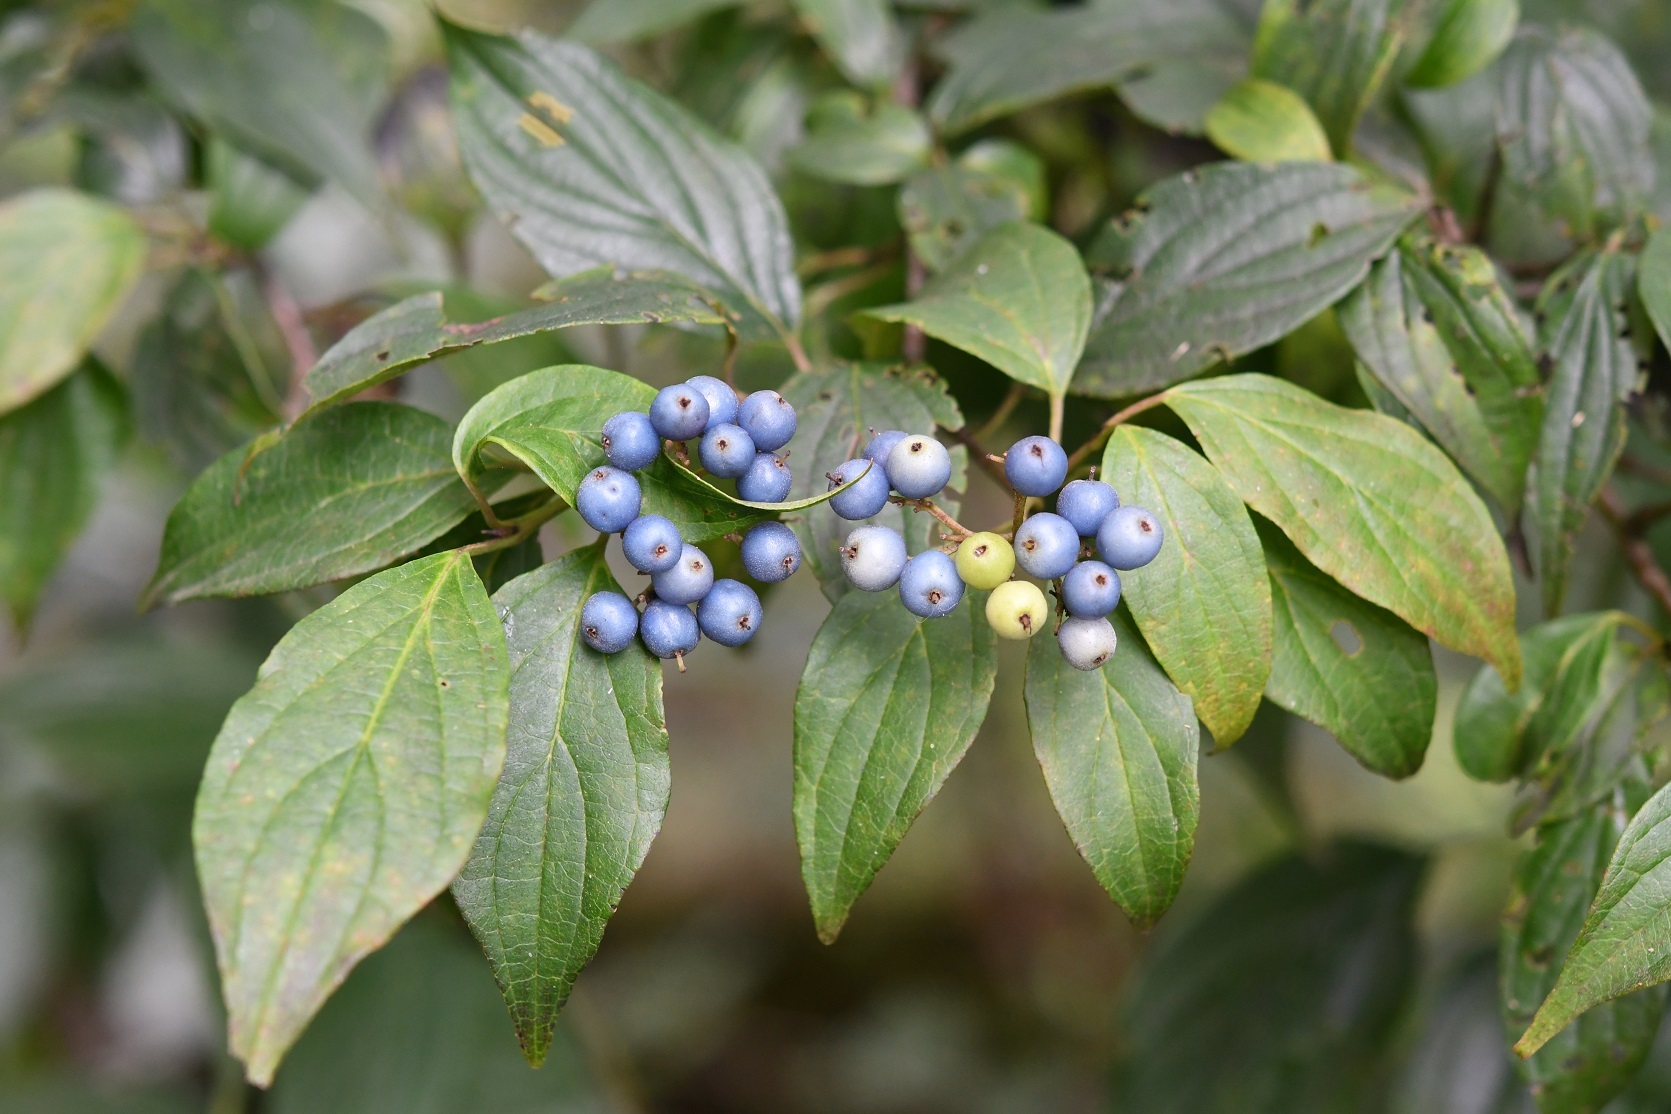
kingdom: Plantae
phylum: Tracheophyta
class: Magnoliopsida
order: Cornales
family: Cornaceae
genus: Cornus
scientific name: Cornus excelsa
